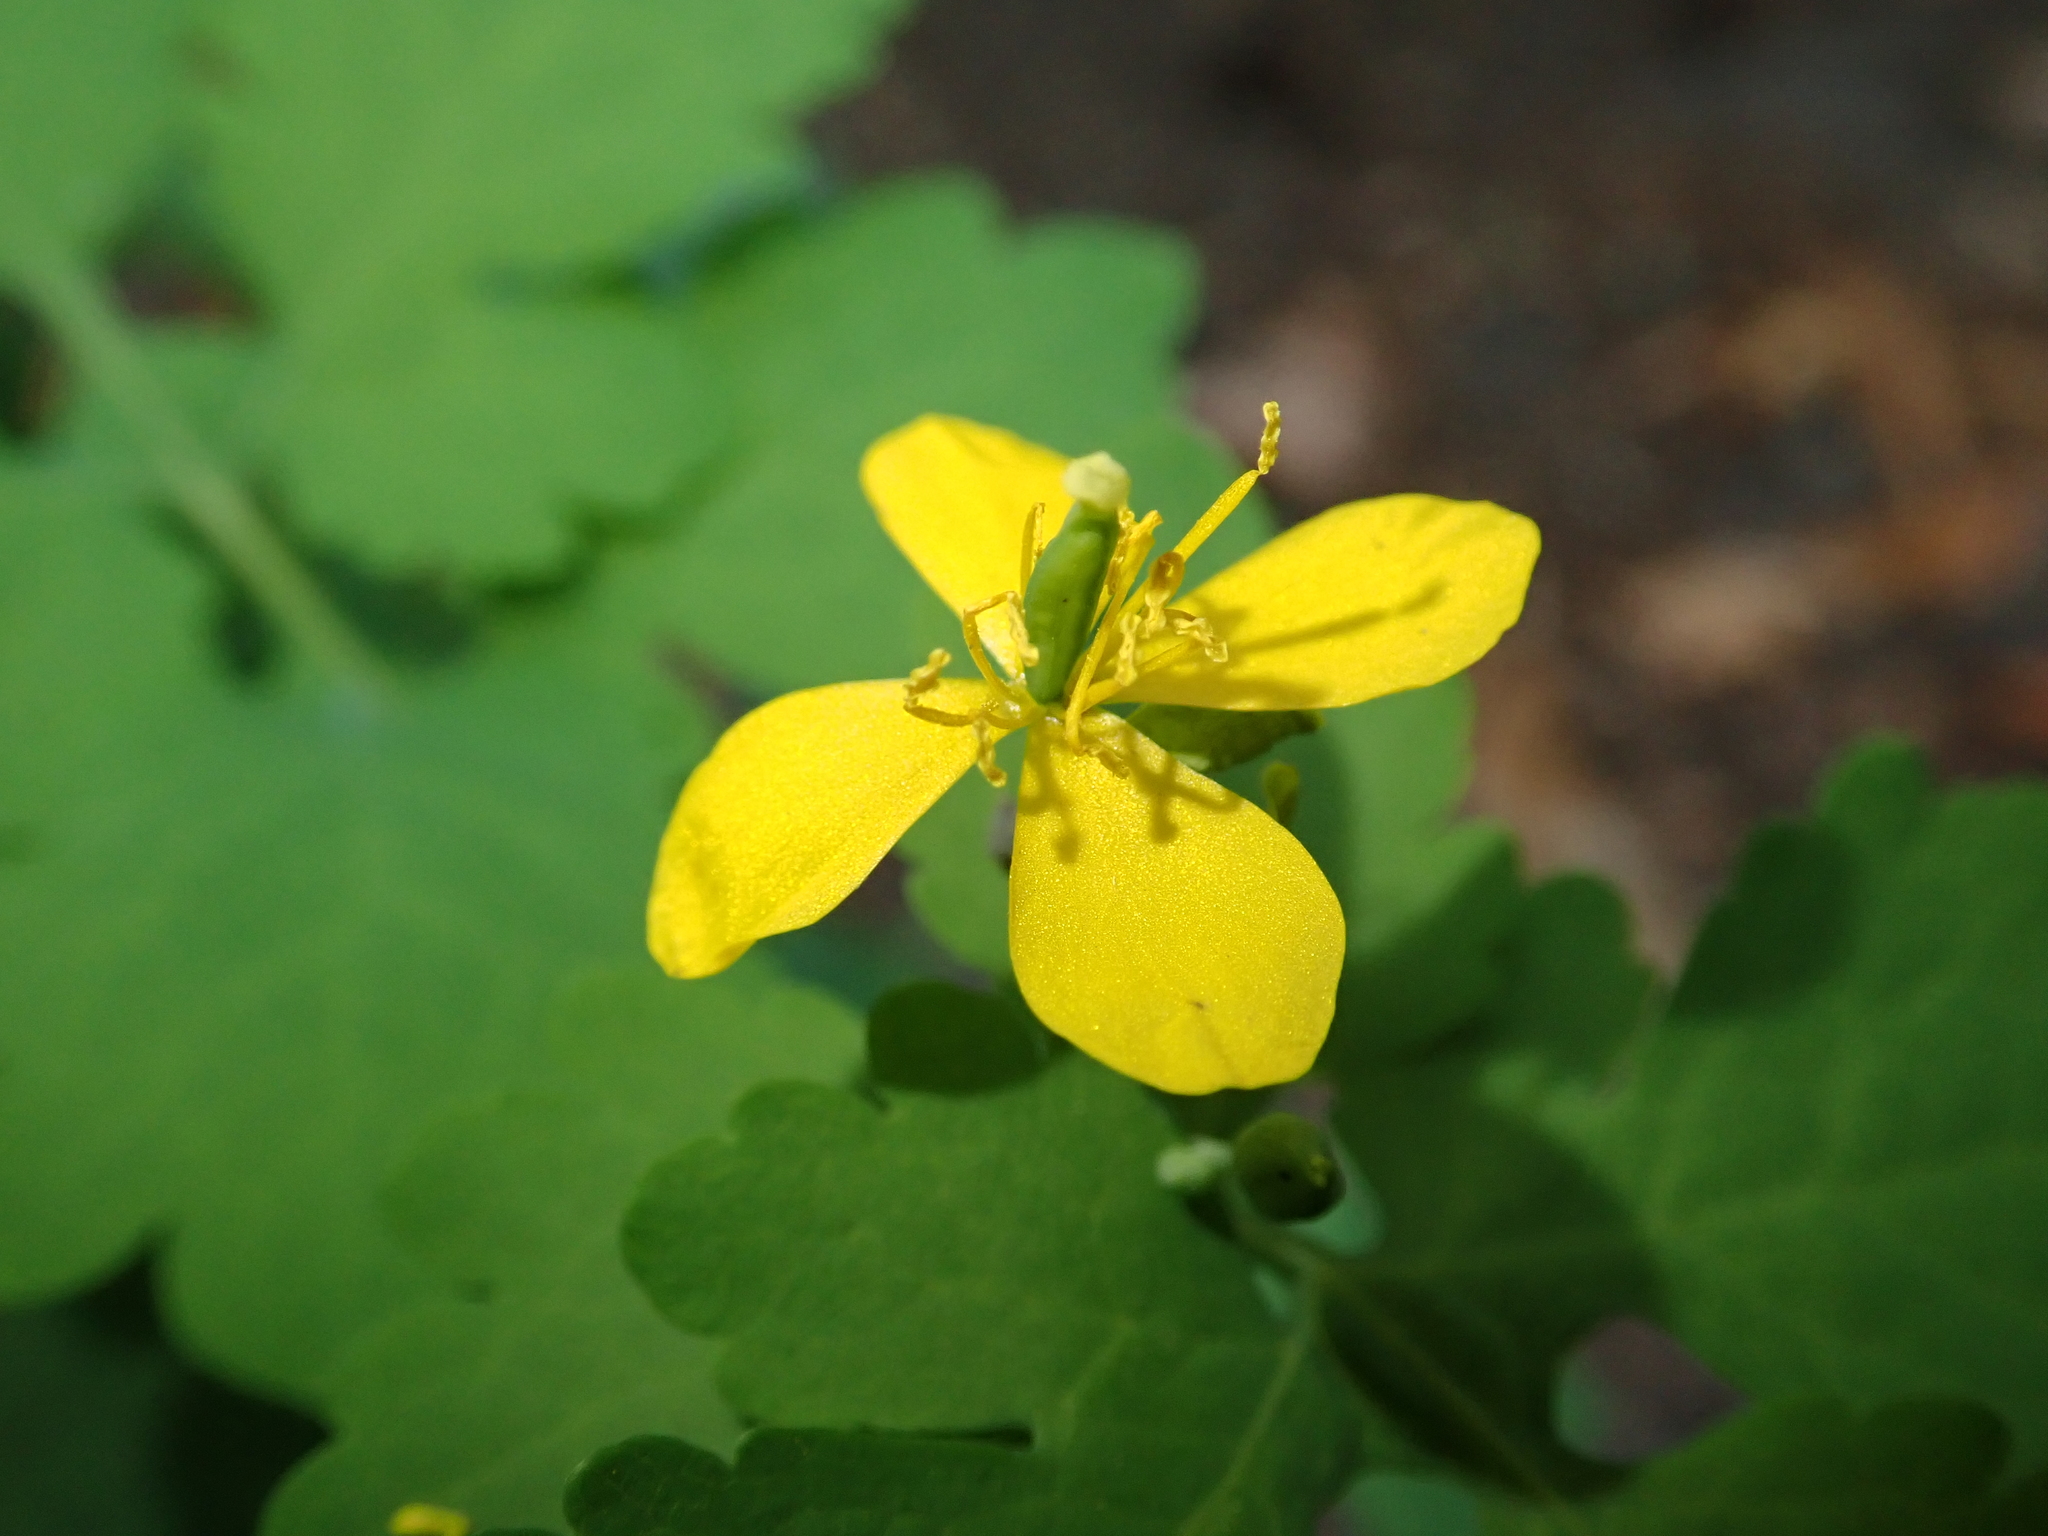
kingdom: Plantae
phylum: Tracheophyta
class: Magnoliopsida
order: Ranunculales
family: Papaveraceae
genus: Chelidonium
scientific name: Chelidonium majus
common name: Greater celandine
